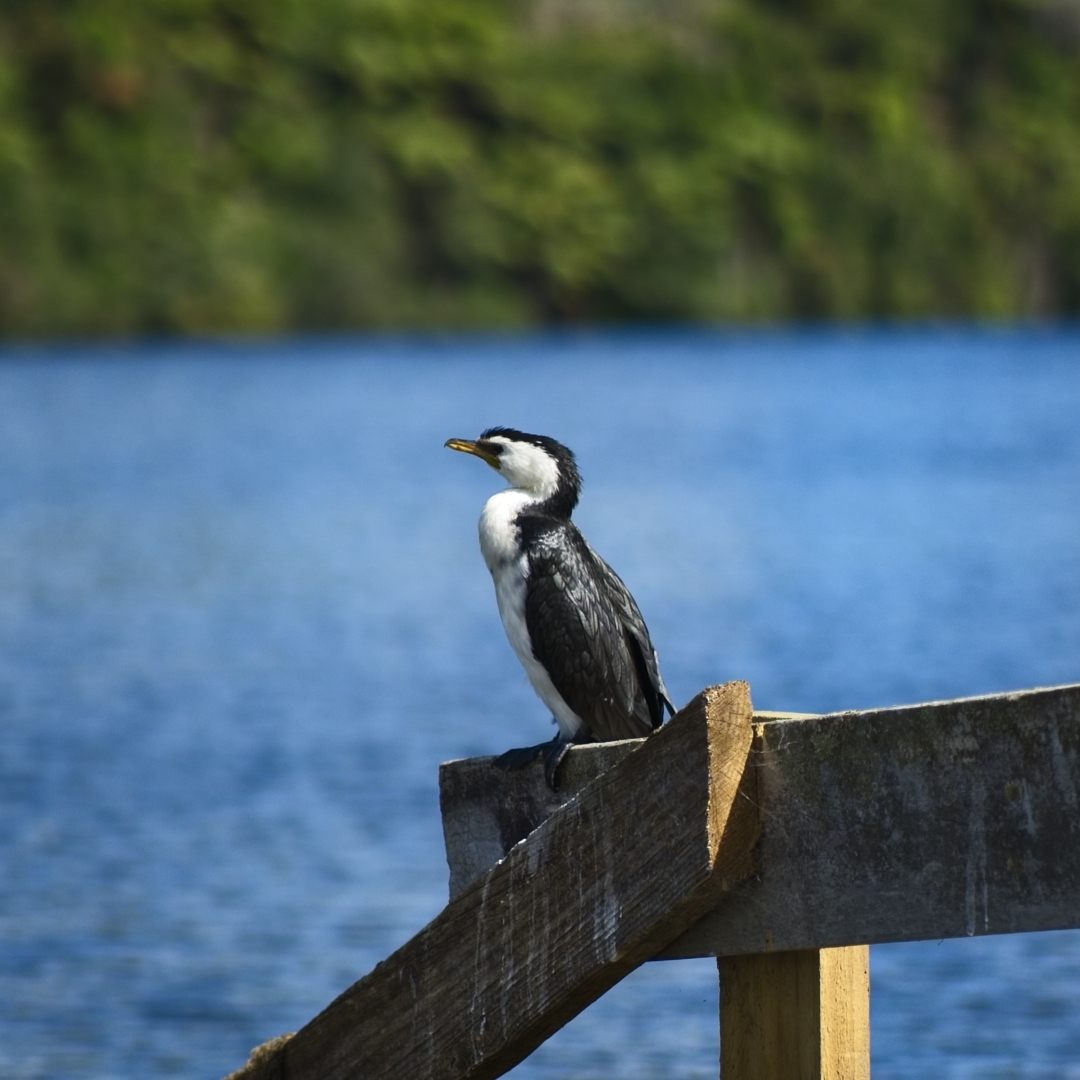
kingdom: Animalia
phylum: Chordata
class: Aves
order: Suliformes
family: Phalacrocoracidae
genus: Microcarbo
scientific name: Microcarbo melanoleucos
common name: Little pied cormorant
